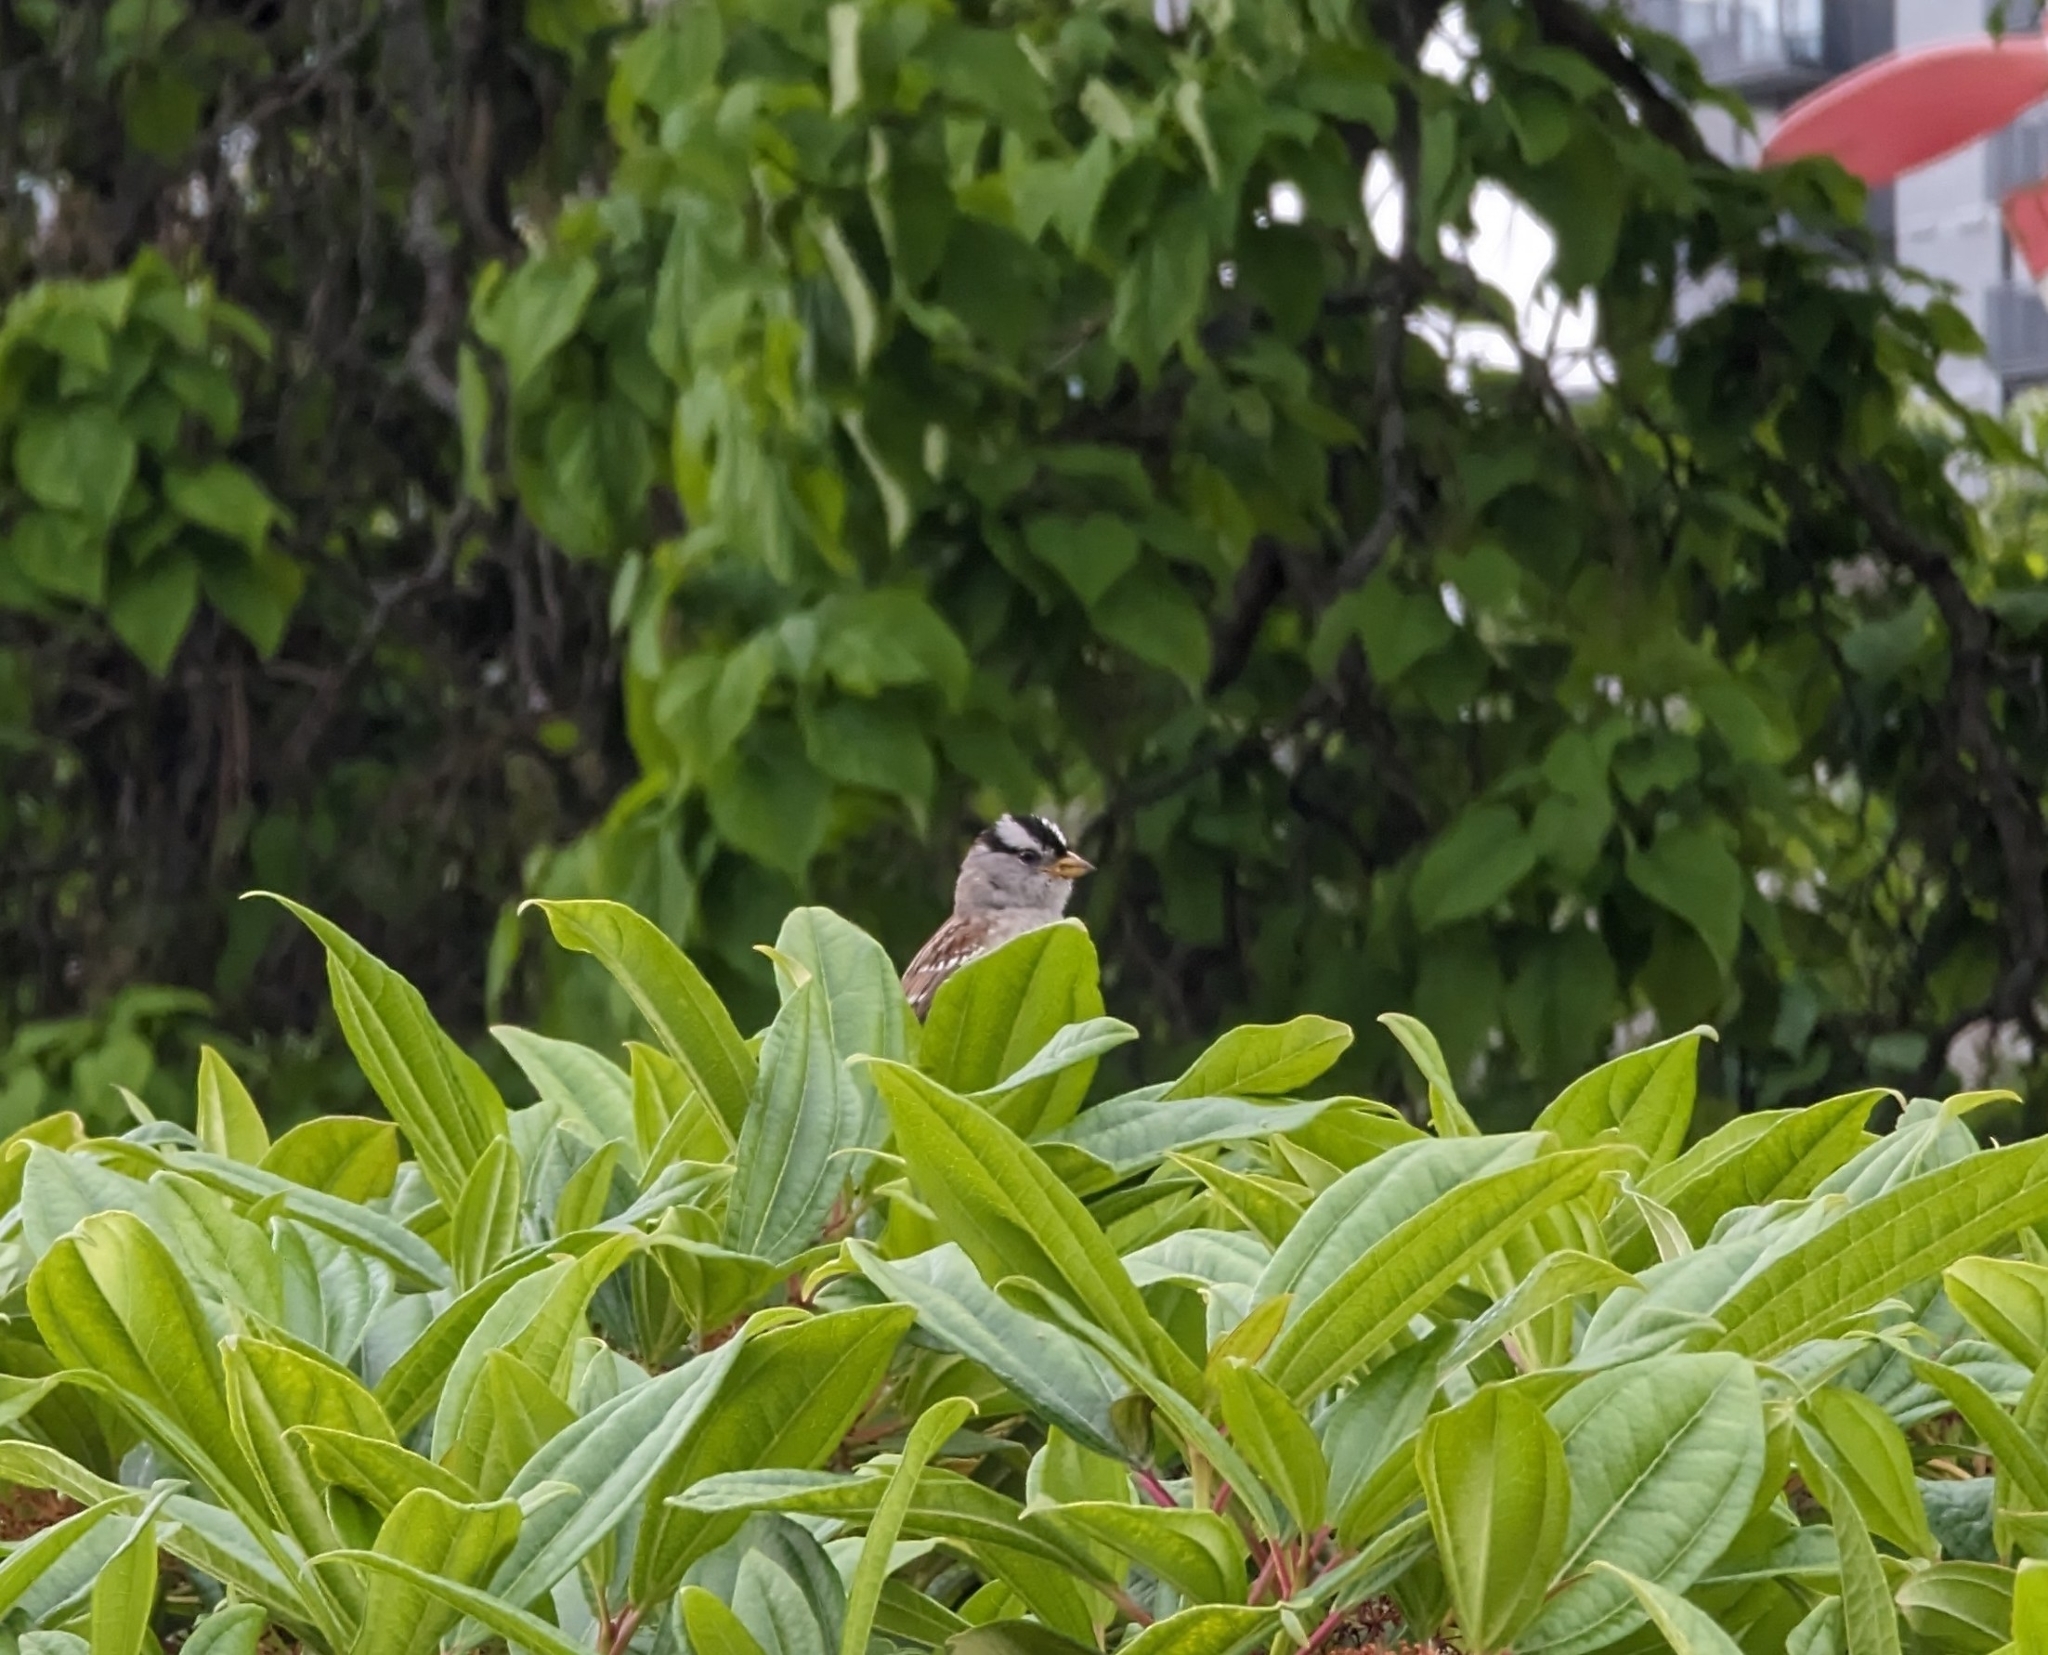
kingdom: Animalia
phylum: Chordata
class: Aves
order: Passeriformes
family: Passerellidae
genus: Zonotrichia
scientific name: Zonotrichia leucophrys
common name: White-crowned sparrow
